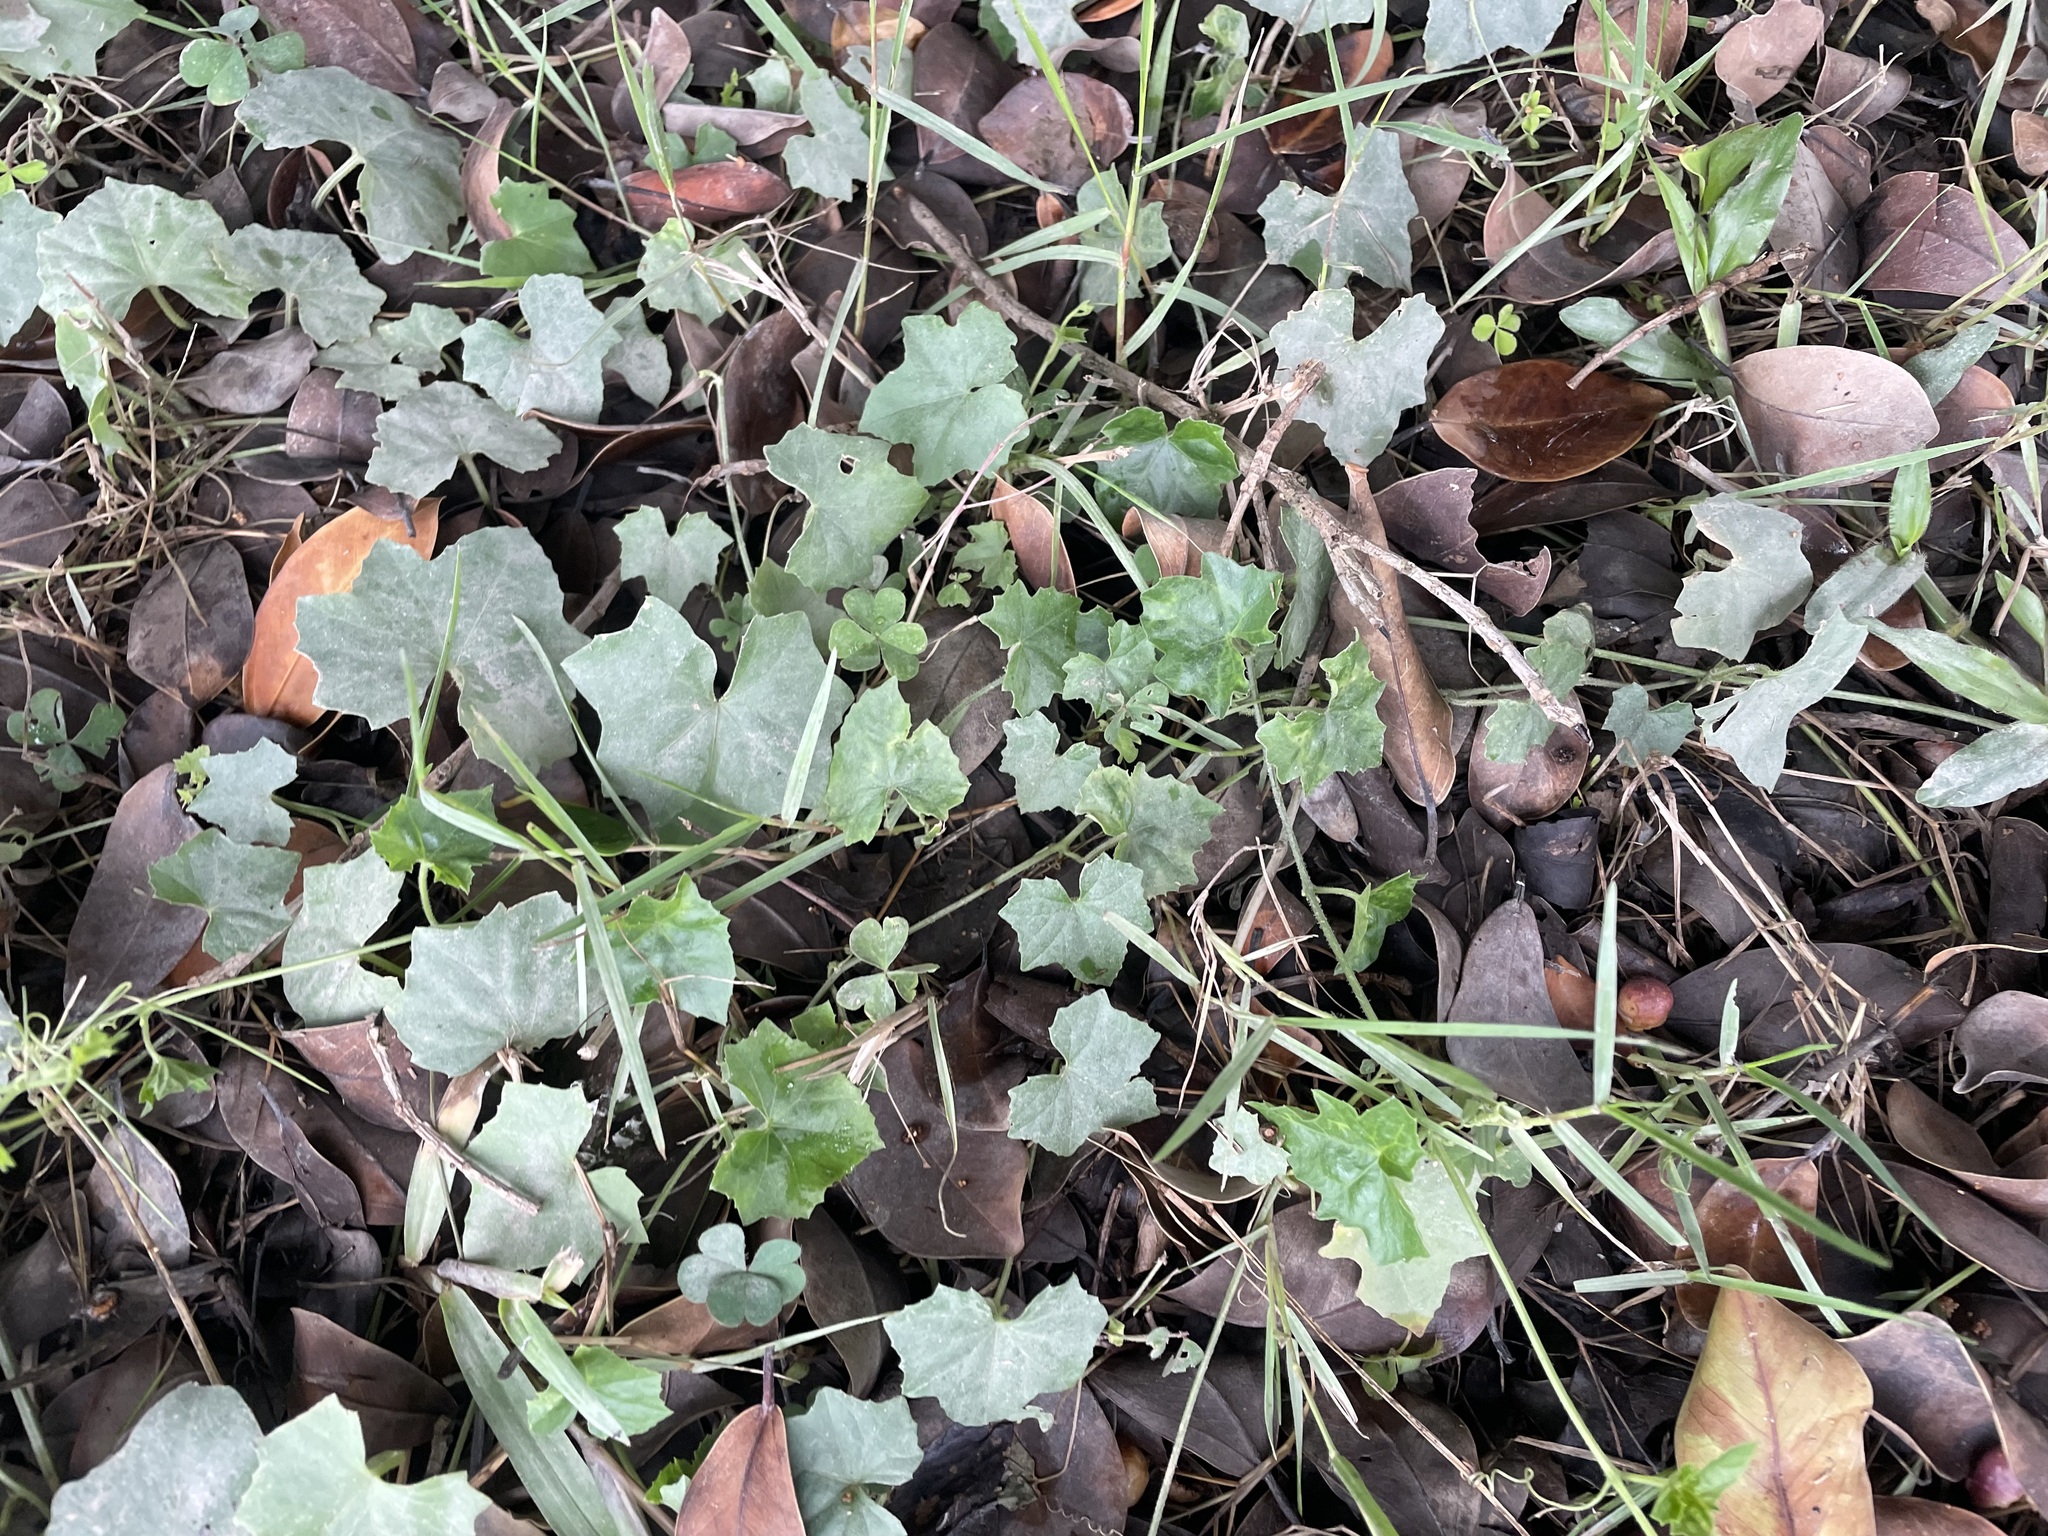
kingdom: Plantae
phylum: Tracheophyta
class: Magnoliopsida
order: Cucurbitales
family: Cucurbitaceae
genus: Melothria
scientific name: Melothria pendula
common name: Creeping-cucumber
